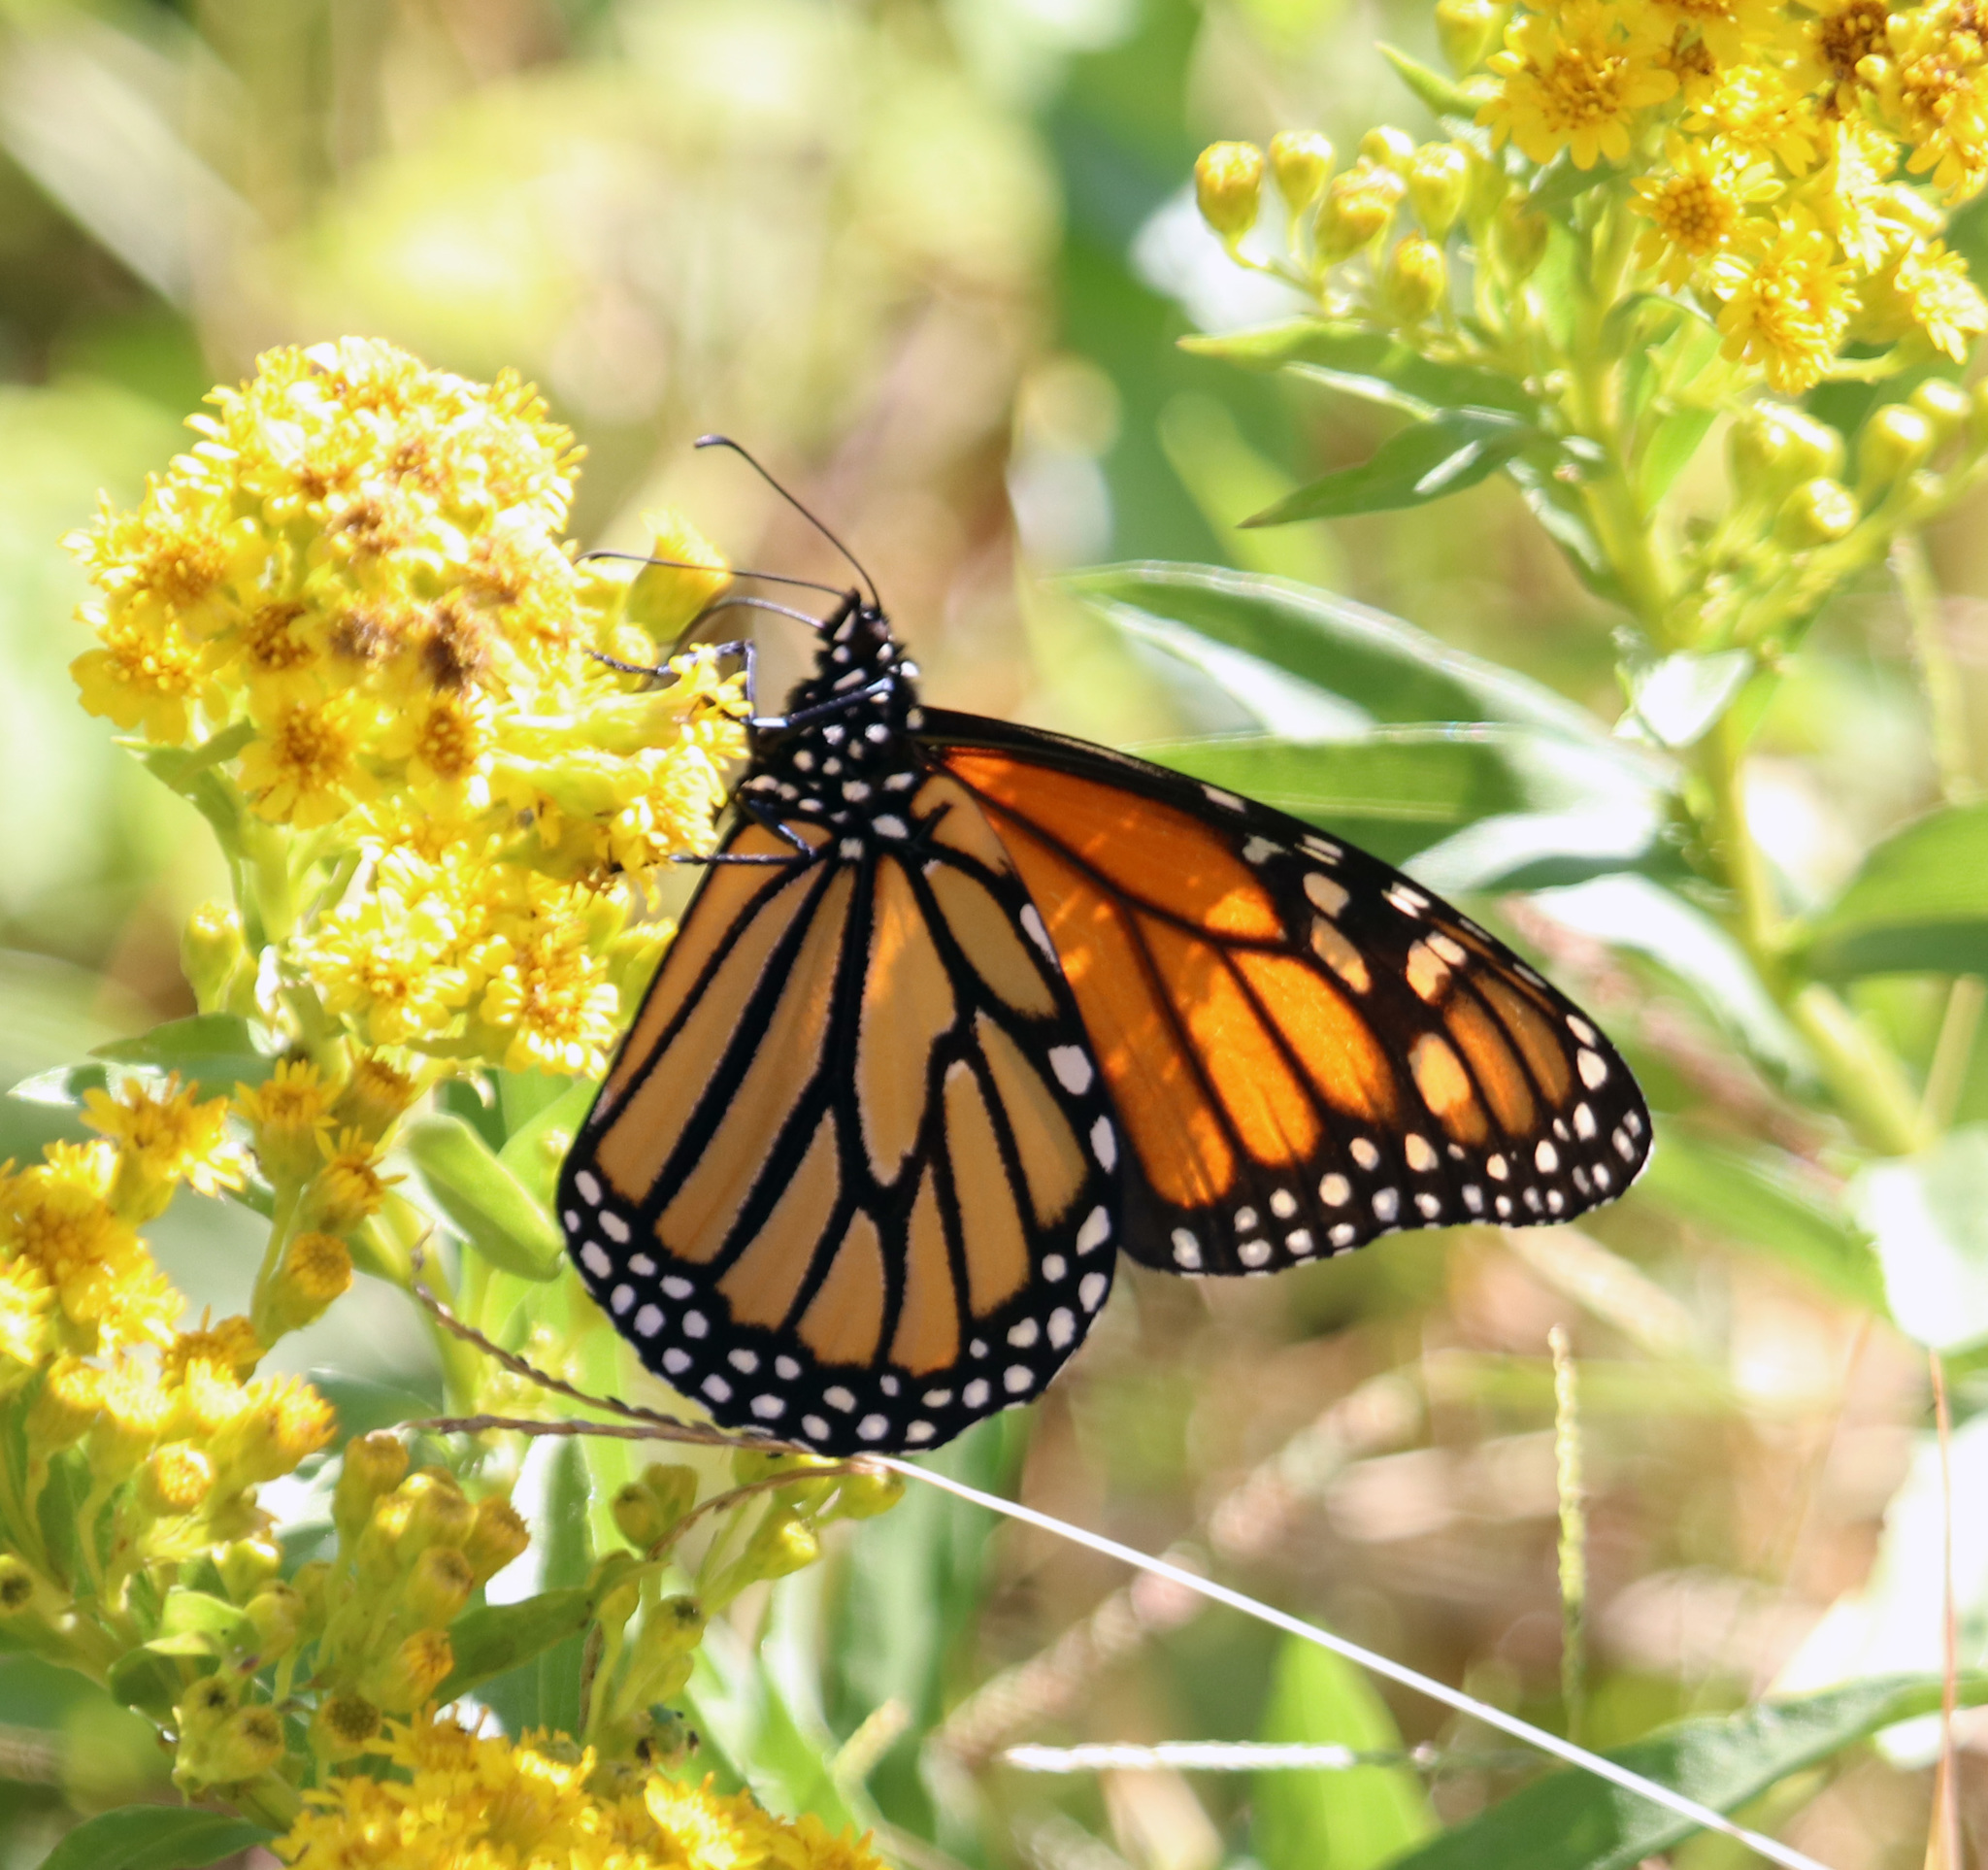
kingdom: Animalia
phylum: Arthropoda
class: Insecta
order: Lepidoptera
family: Nymphalidae
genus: Danaus
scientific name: Danaus plexippus
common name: Monarch
